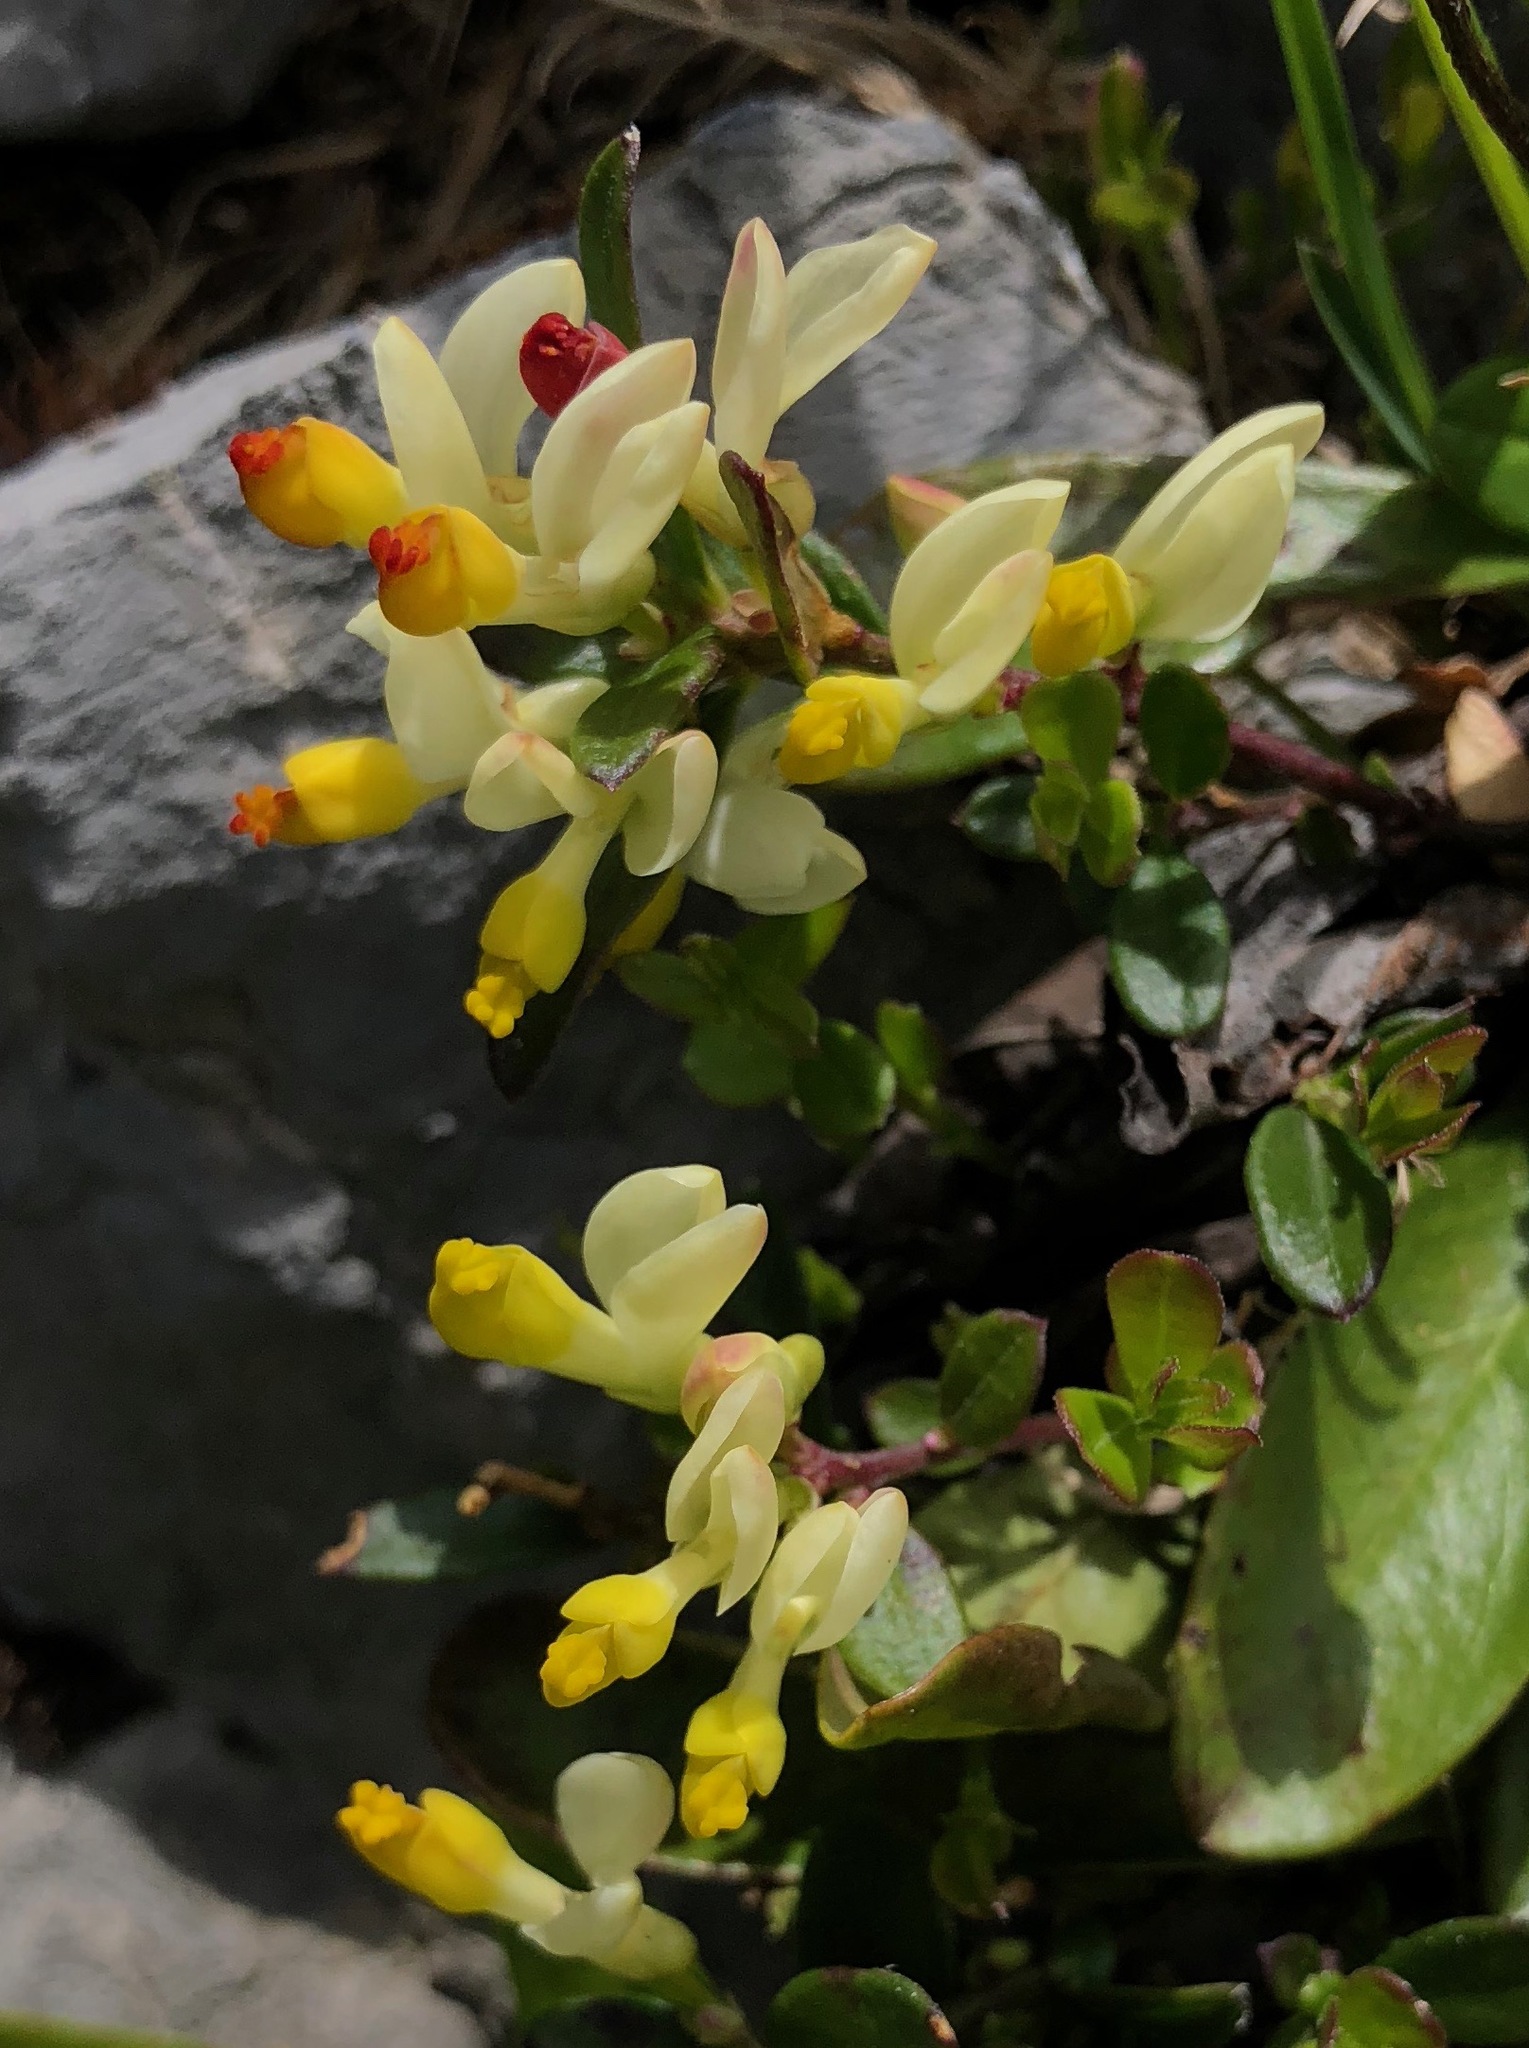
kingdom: Plantae
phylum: Tracheophyta
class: Magnoliopsida
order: Fabales
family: Polygalaceae
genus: Polygaloides
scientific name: Polygaloides chamaebuxus
